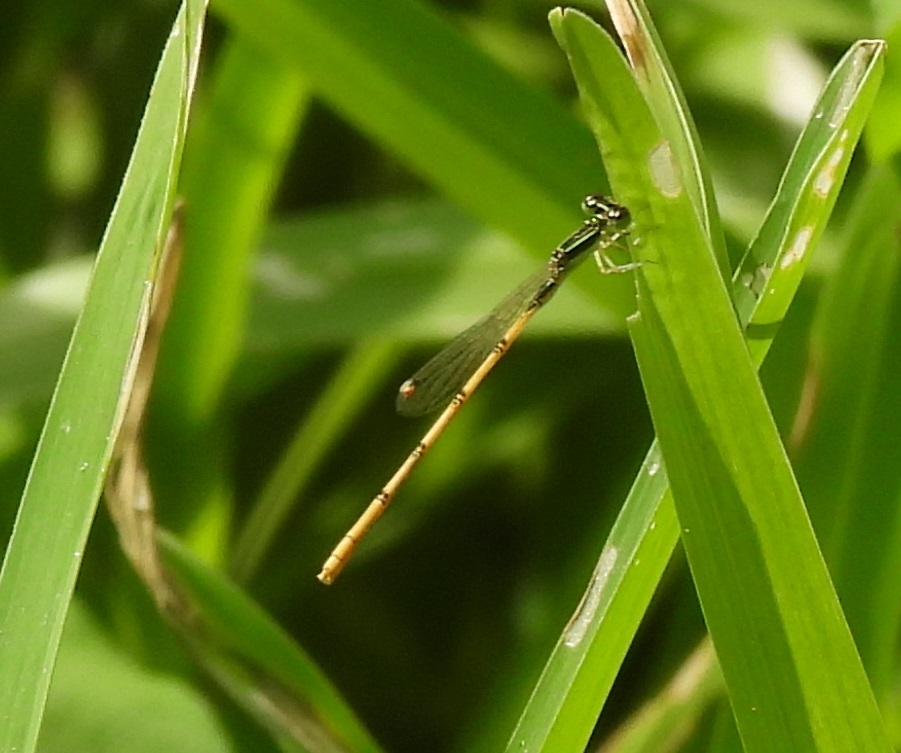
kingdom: Animalia
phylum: Arthropoda
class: Insecta
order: Odonata
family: Coenagrionidae
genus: Ischnura
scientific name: Ischnura hastata
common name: Citrine forktail
